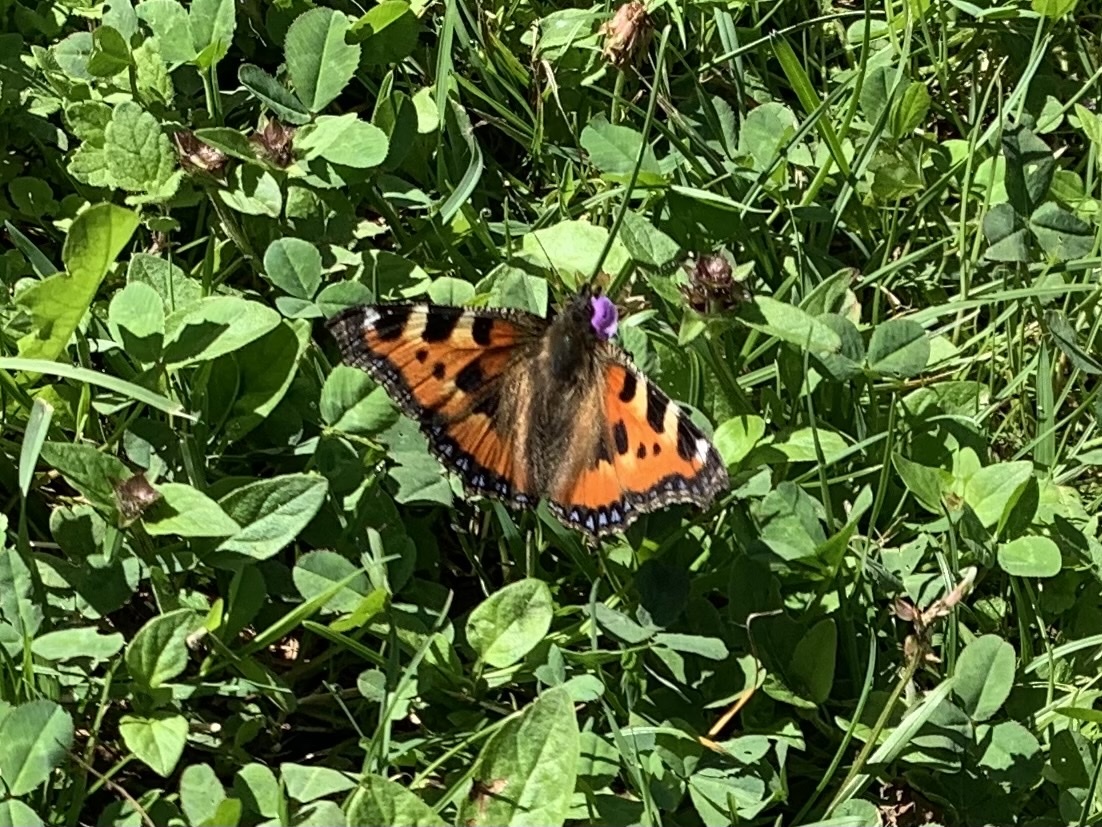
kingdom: Animalia
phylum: Arthropoda
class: Insecta
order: Lepidoptera
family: Nymphalidae
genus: Aglais
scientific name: Aglais urticae
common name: Small tortoiseshell
